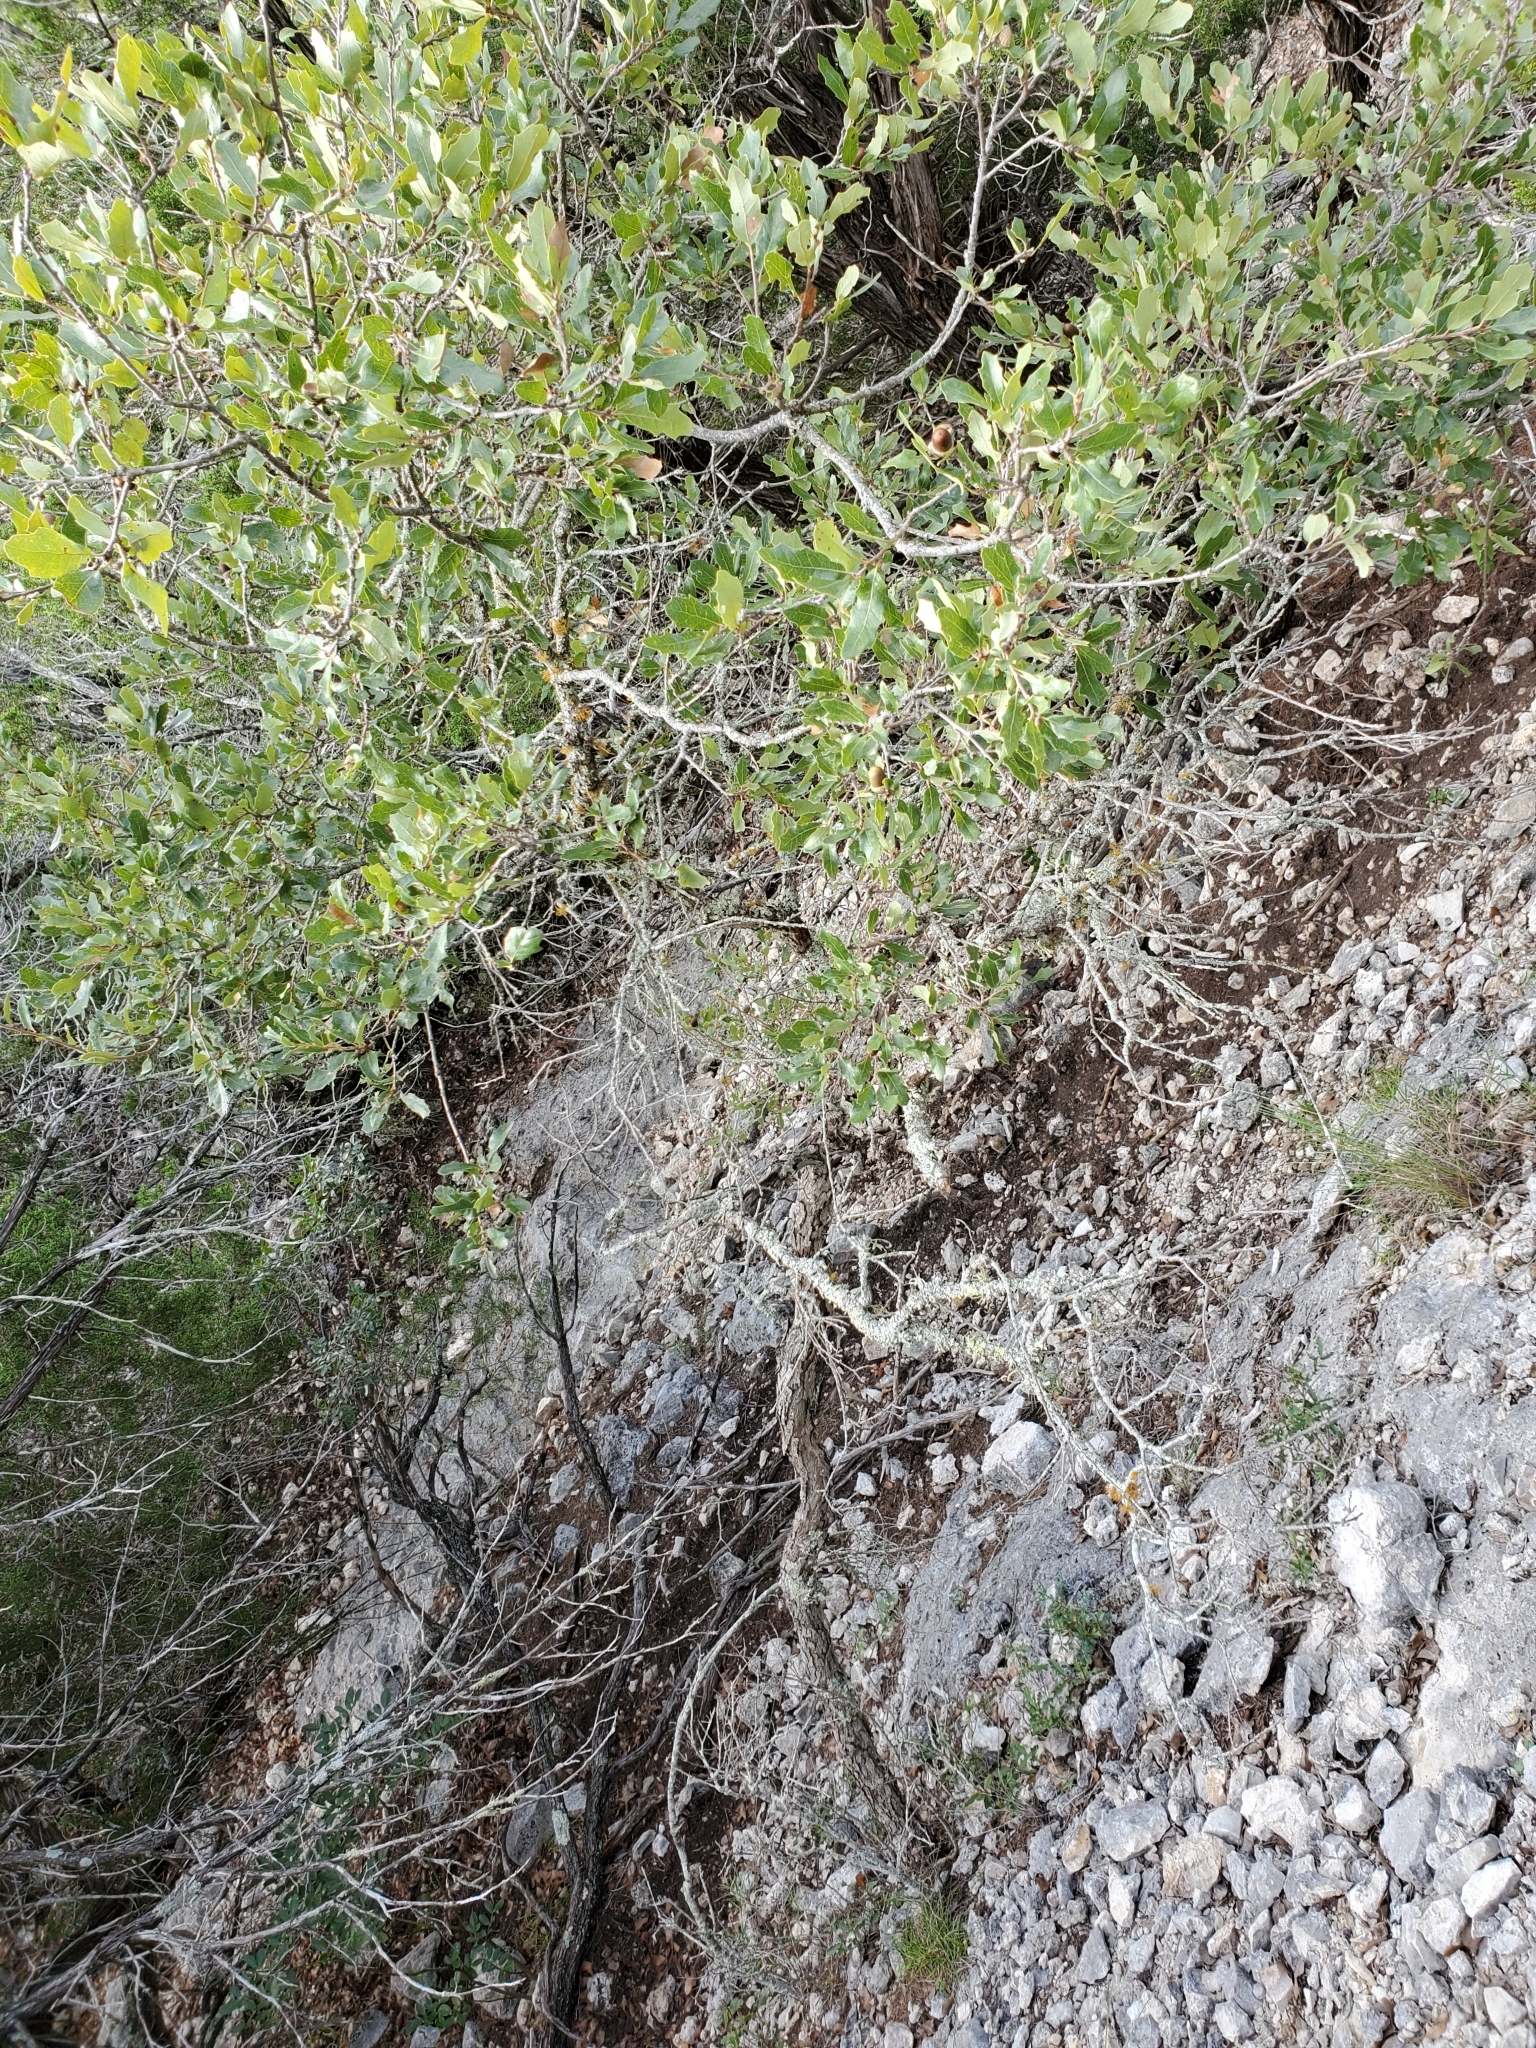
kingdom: Plantae
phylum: Tracheophyta
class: Magnoliopsida
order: Fagales
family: Fagaceae
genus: Quercus
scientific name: Quercus vaseyana
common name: Sandpaper oak
